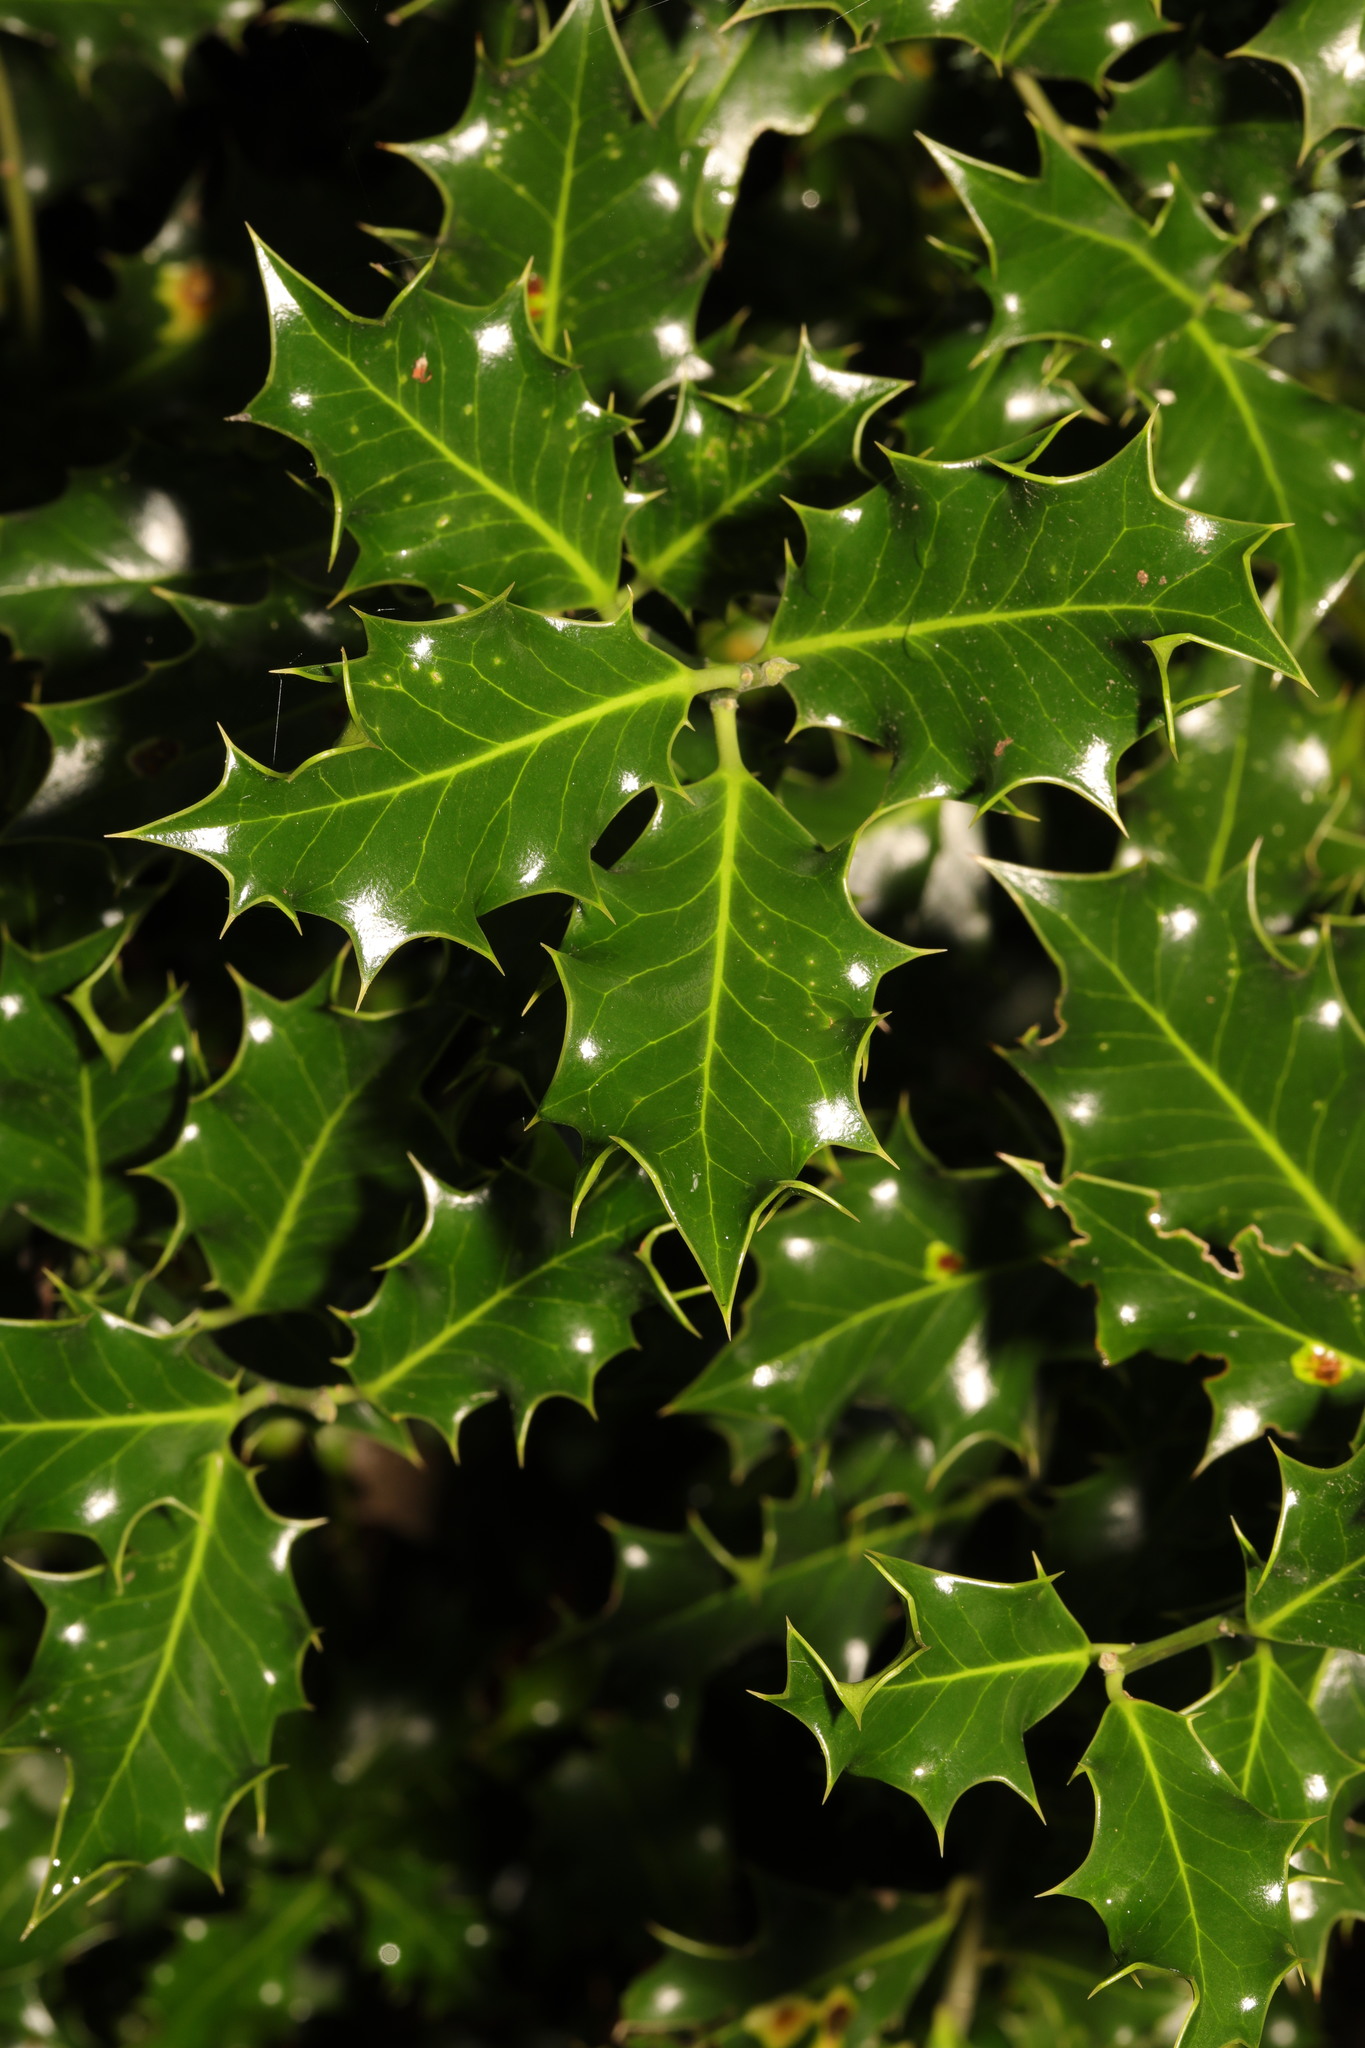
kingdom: Plantae
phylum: Tracheophyta
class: Magnoliopsida
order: Aquifoliales
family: Aquifoliaceae
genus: Ilex
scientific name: Ilex aquifolium
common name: English holly
